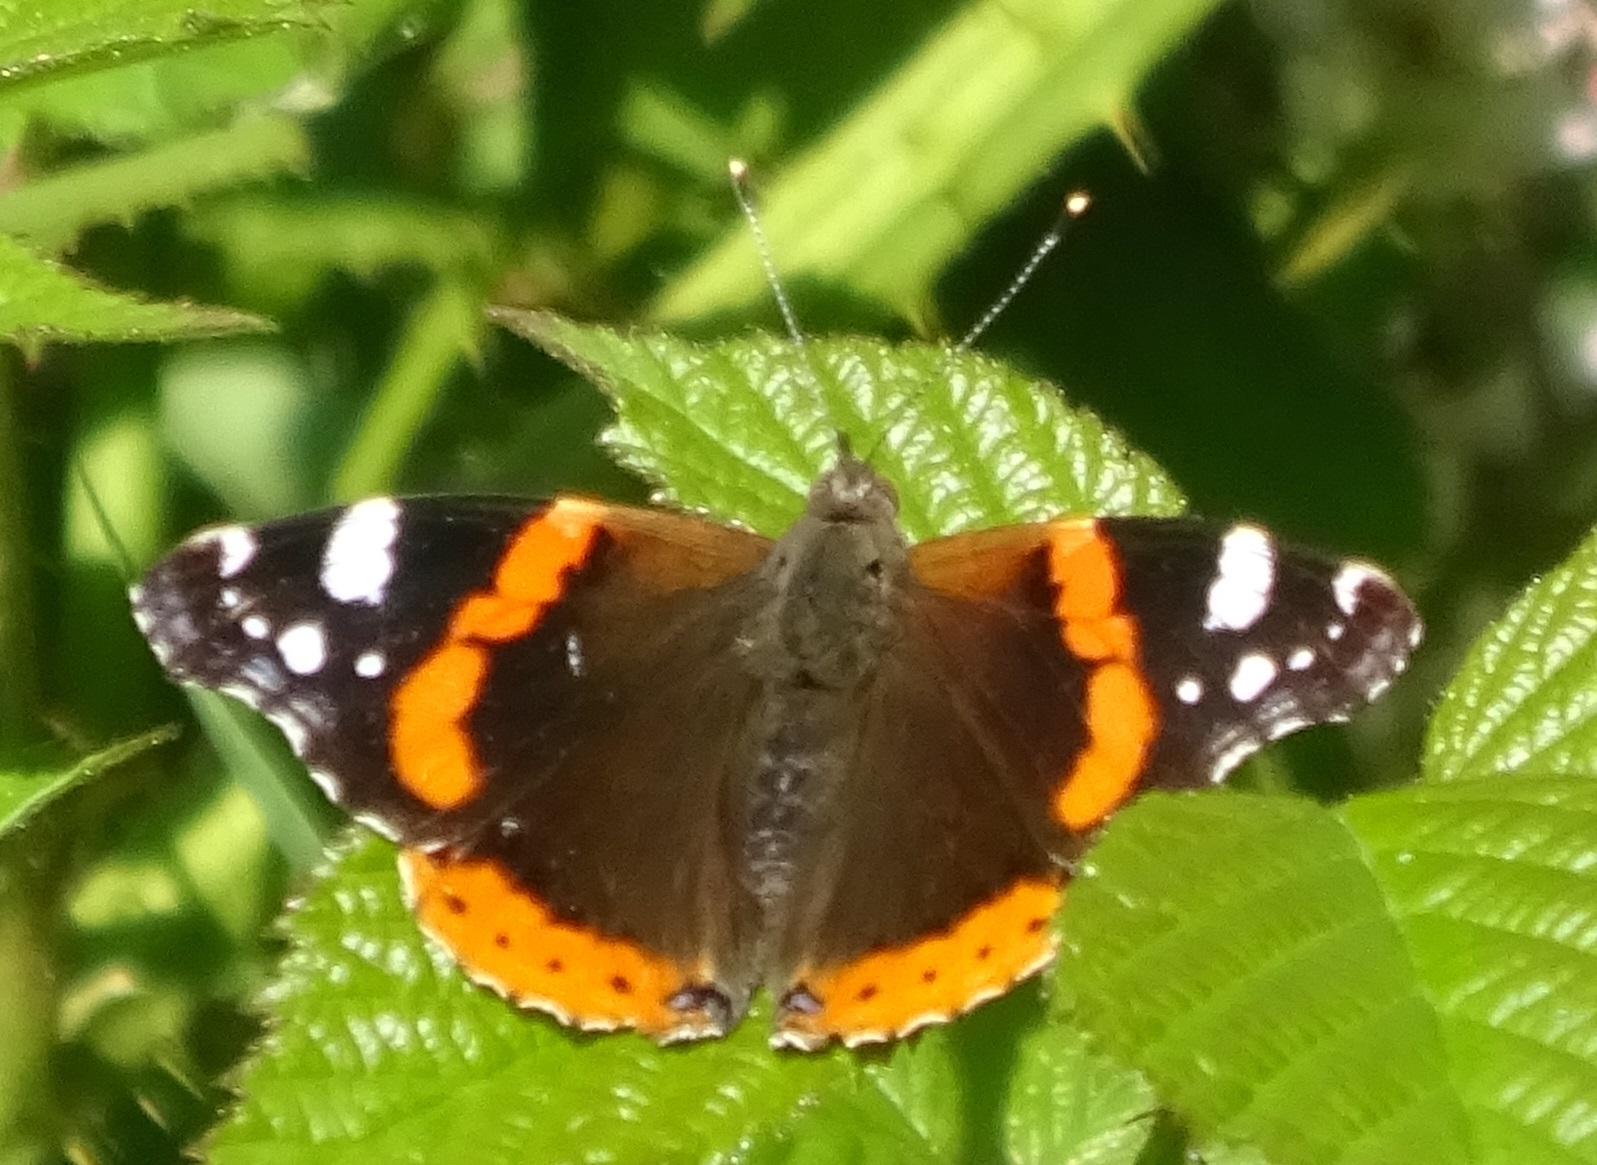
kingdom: Animalia
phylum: Arthropoda
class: Insecta
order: Lepidoptera
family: Nymphalidae
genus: Vanessa
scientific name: Vanessa atalanta
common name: Red admiral
